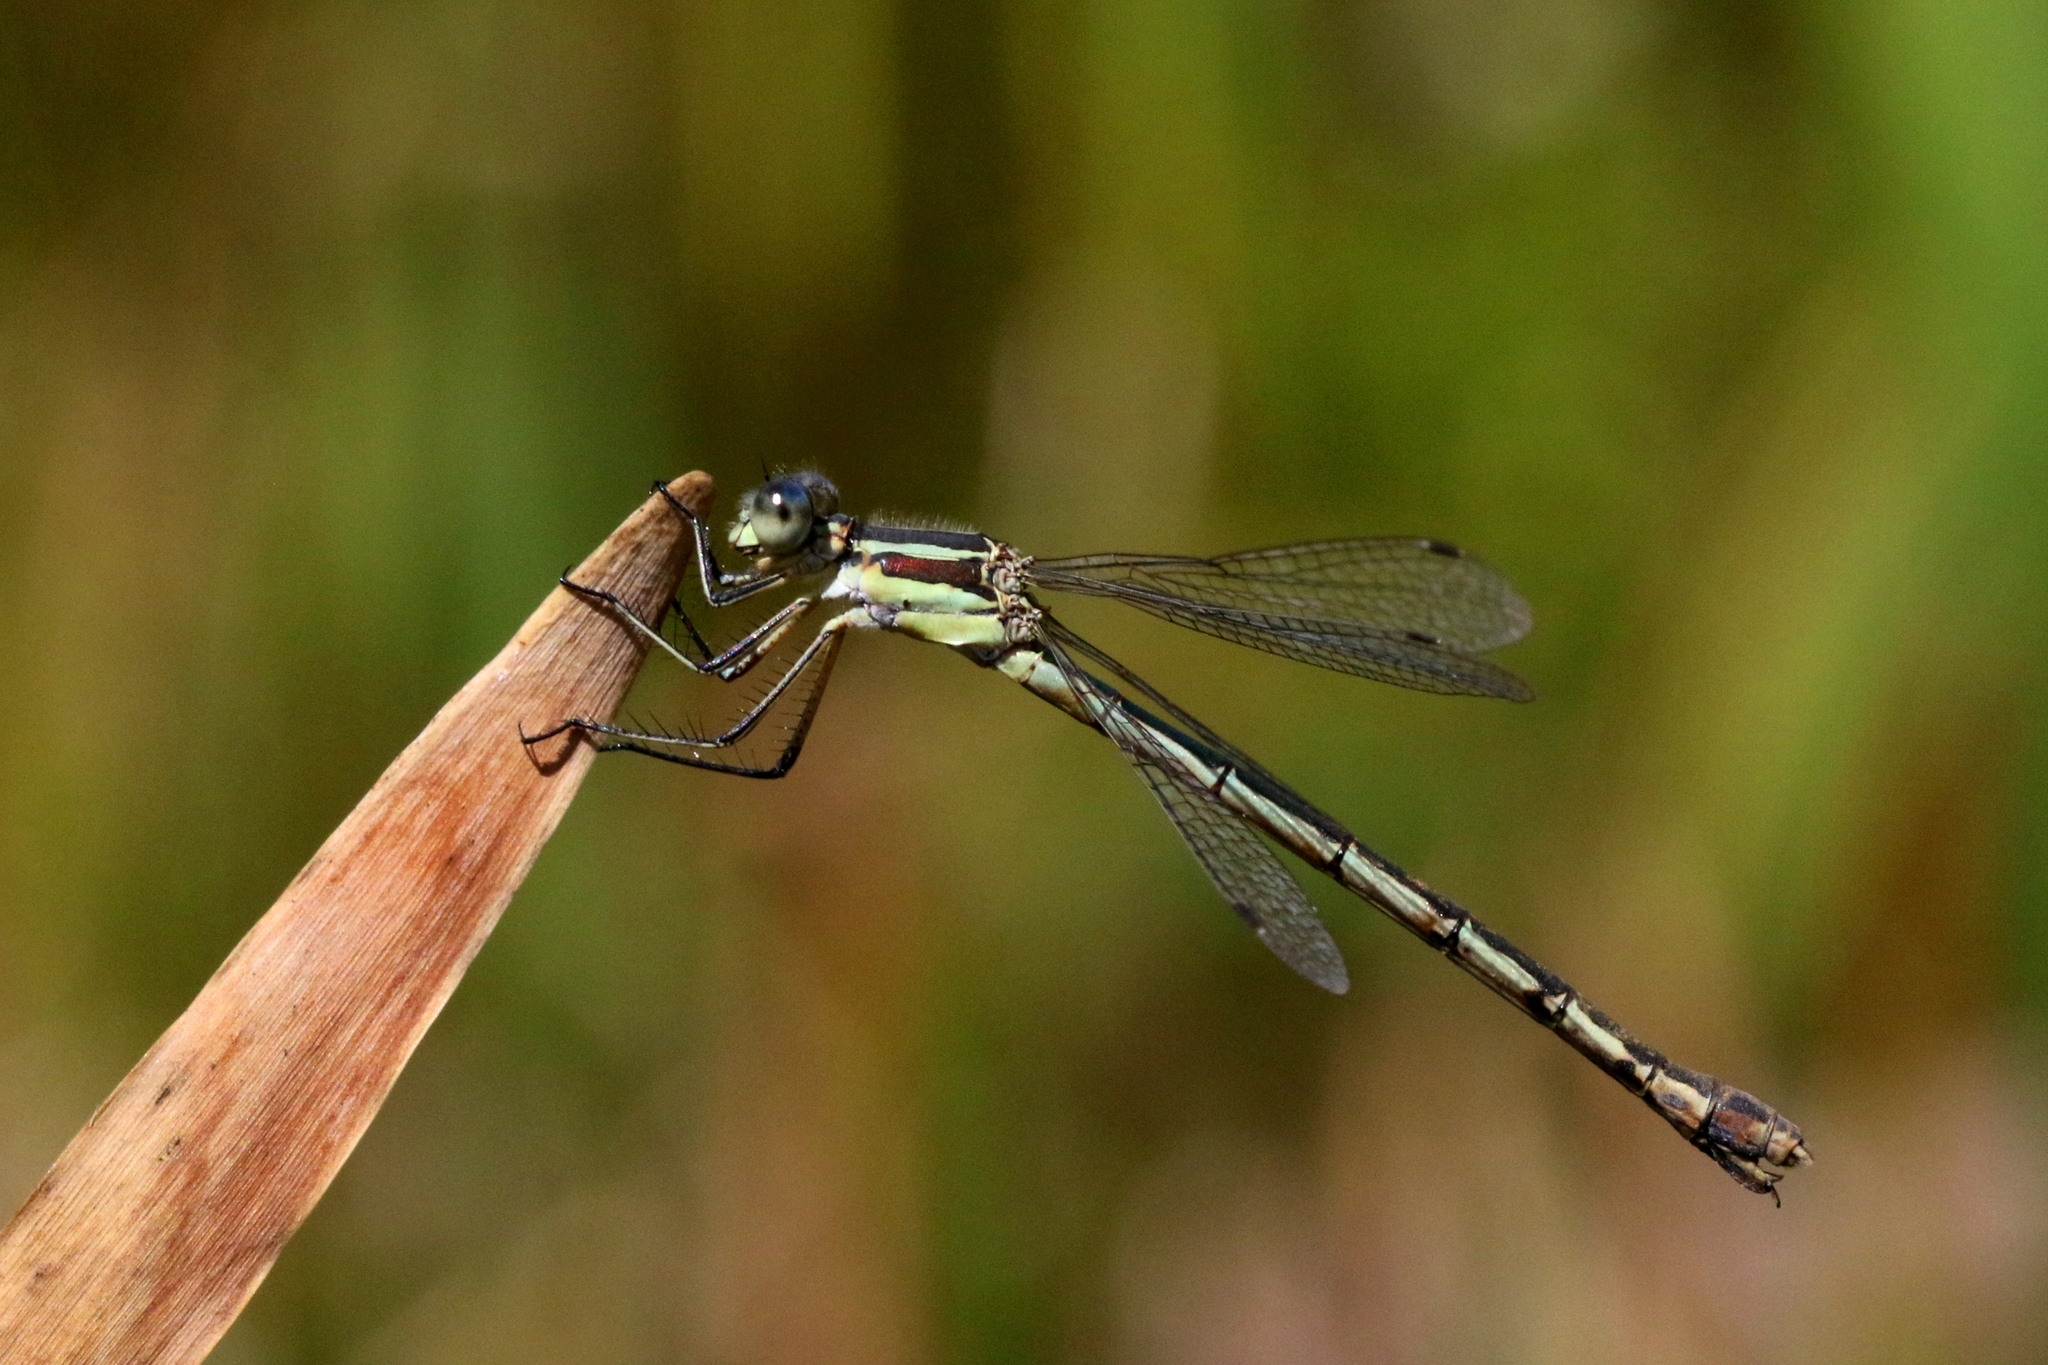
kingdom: Animalia
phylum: Arthropoda
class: Insecta
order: Odonata
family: Lestidae
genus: Lestes
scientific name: Lestes unguiculatus
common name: Lyre-tipped spreadwing
